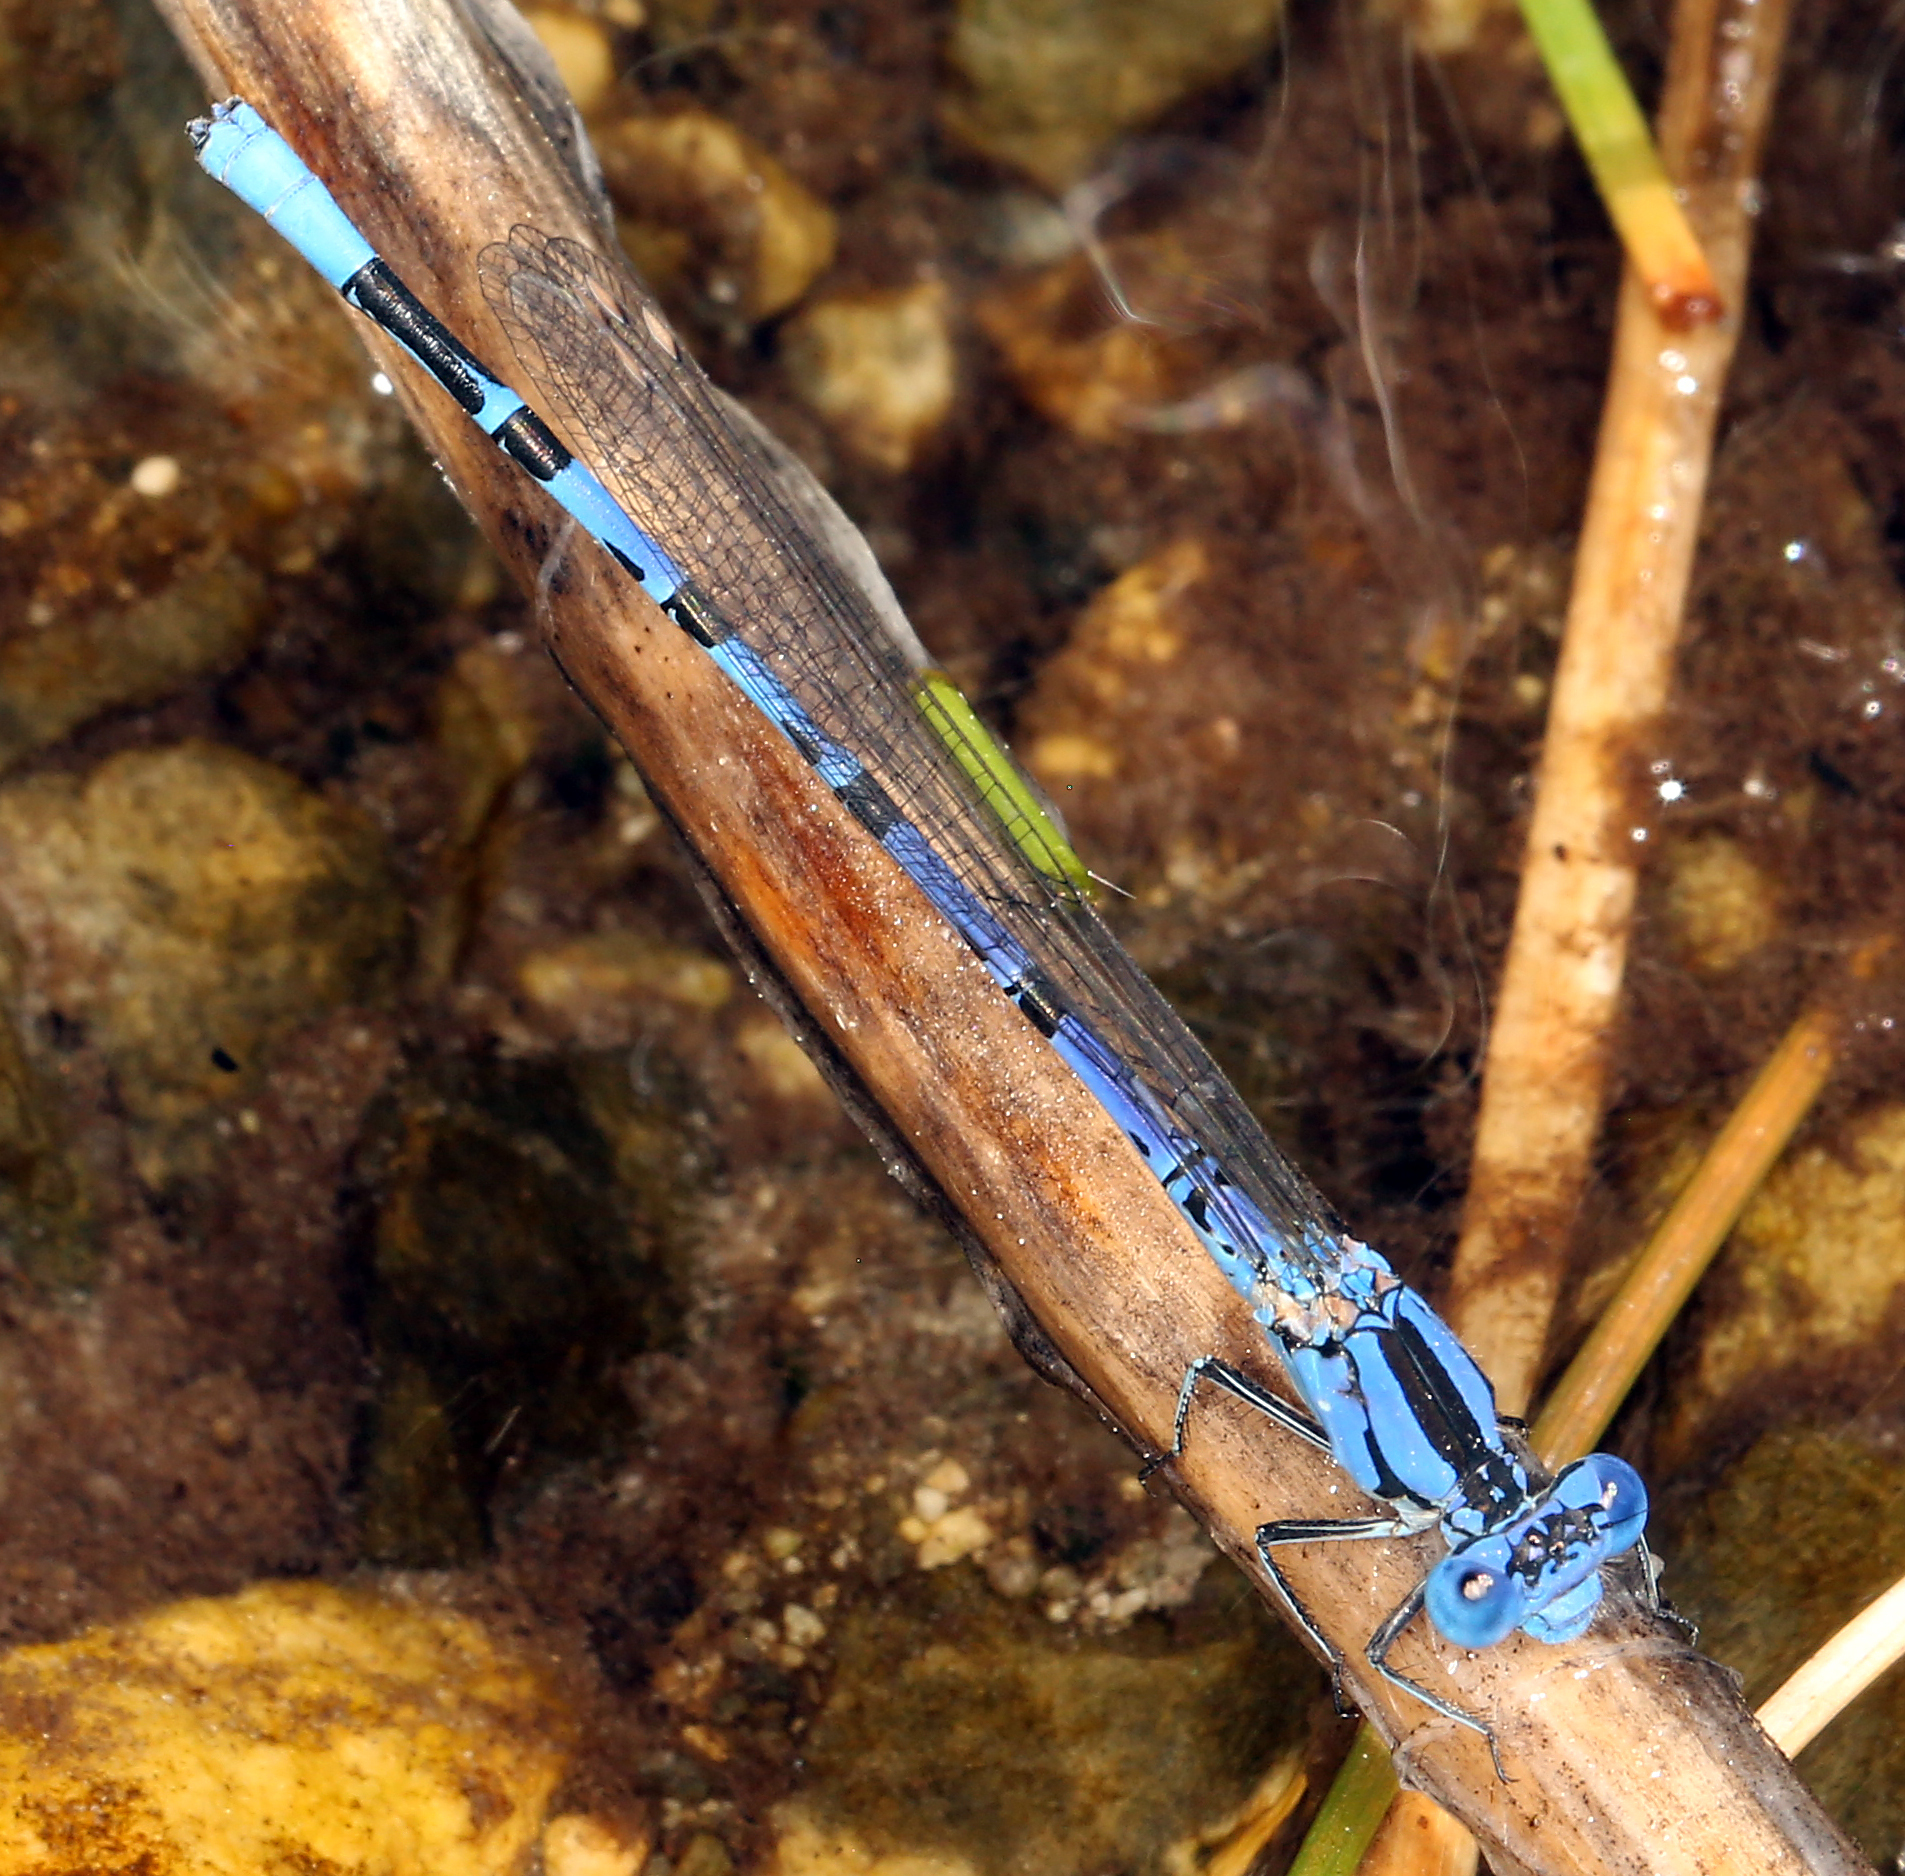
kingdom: Animalia
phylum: Arthropoda
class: Insecta
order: Odonata
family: Coenagrionidae
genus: Argia
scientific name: Argia vivida
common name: Vivid dancer
